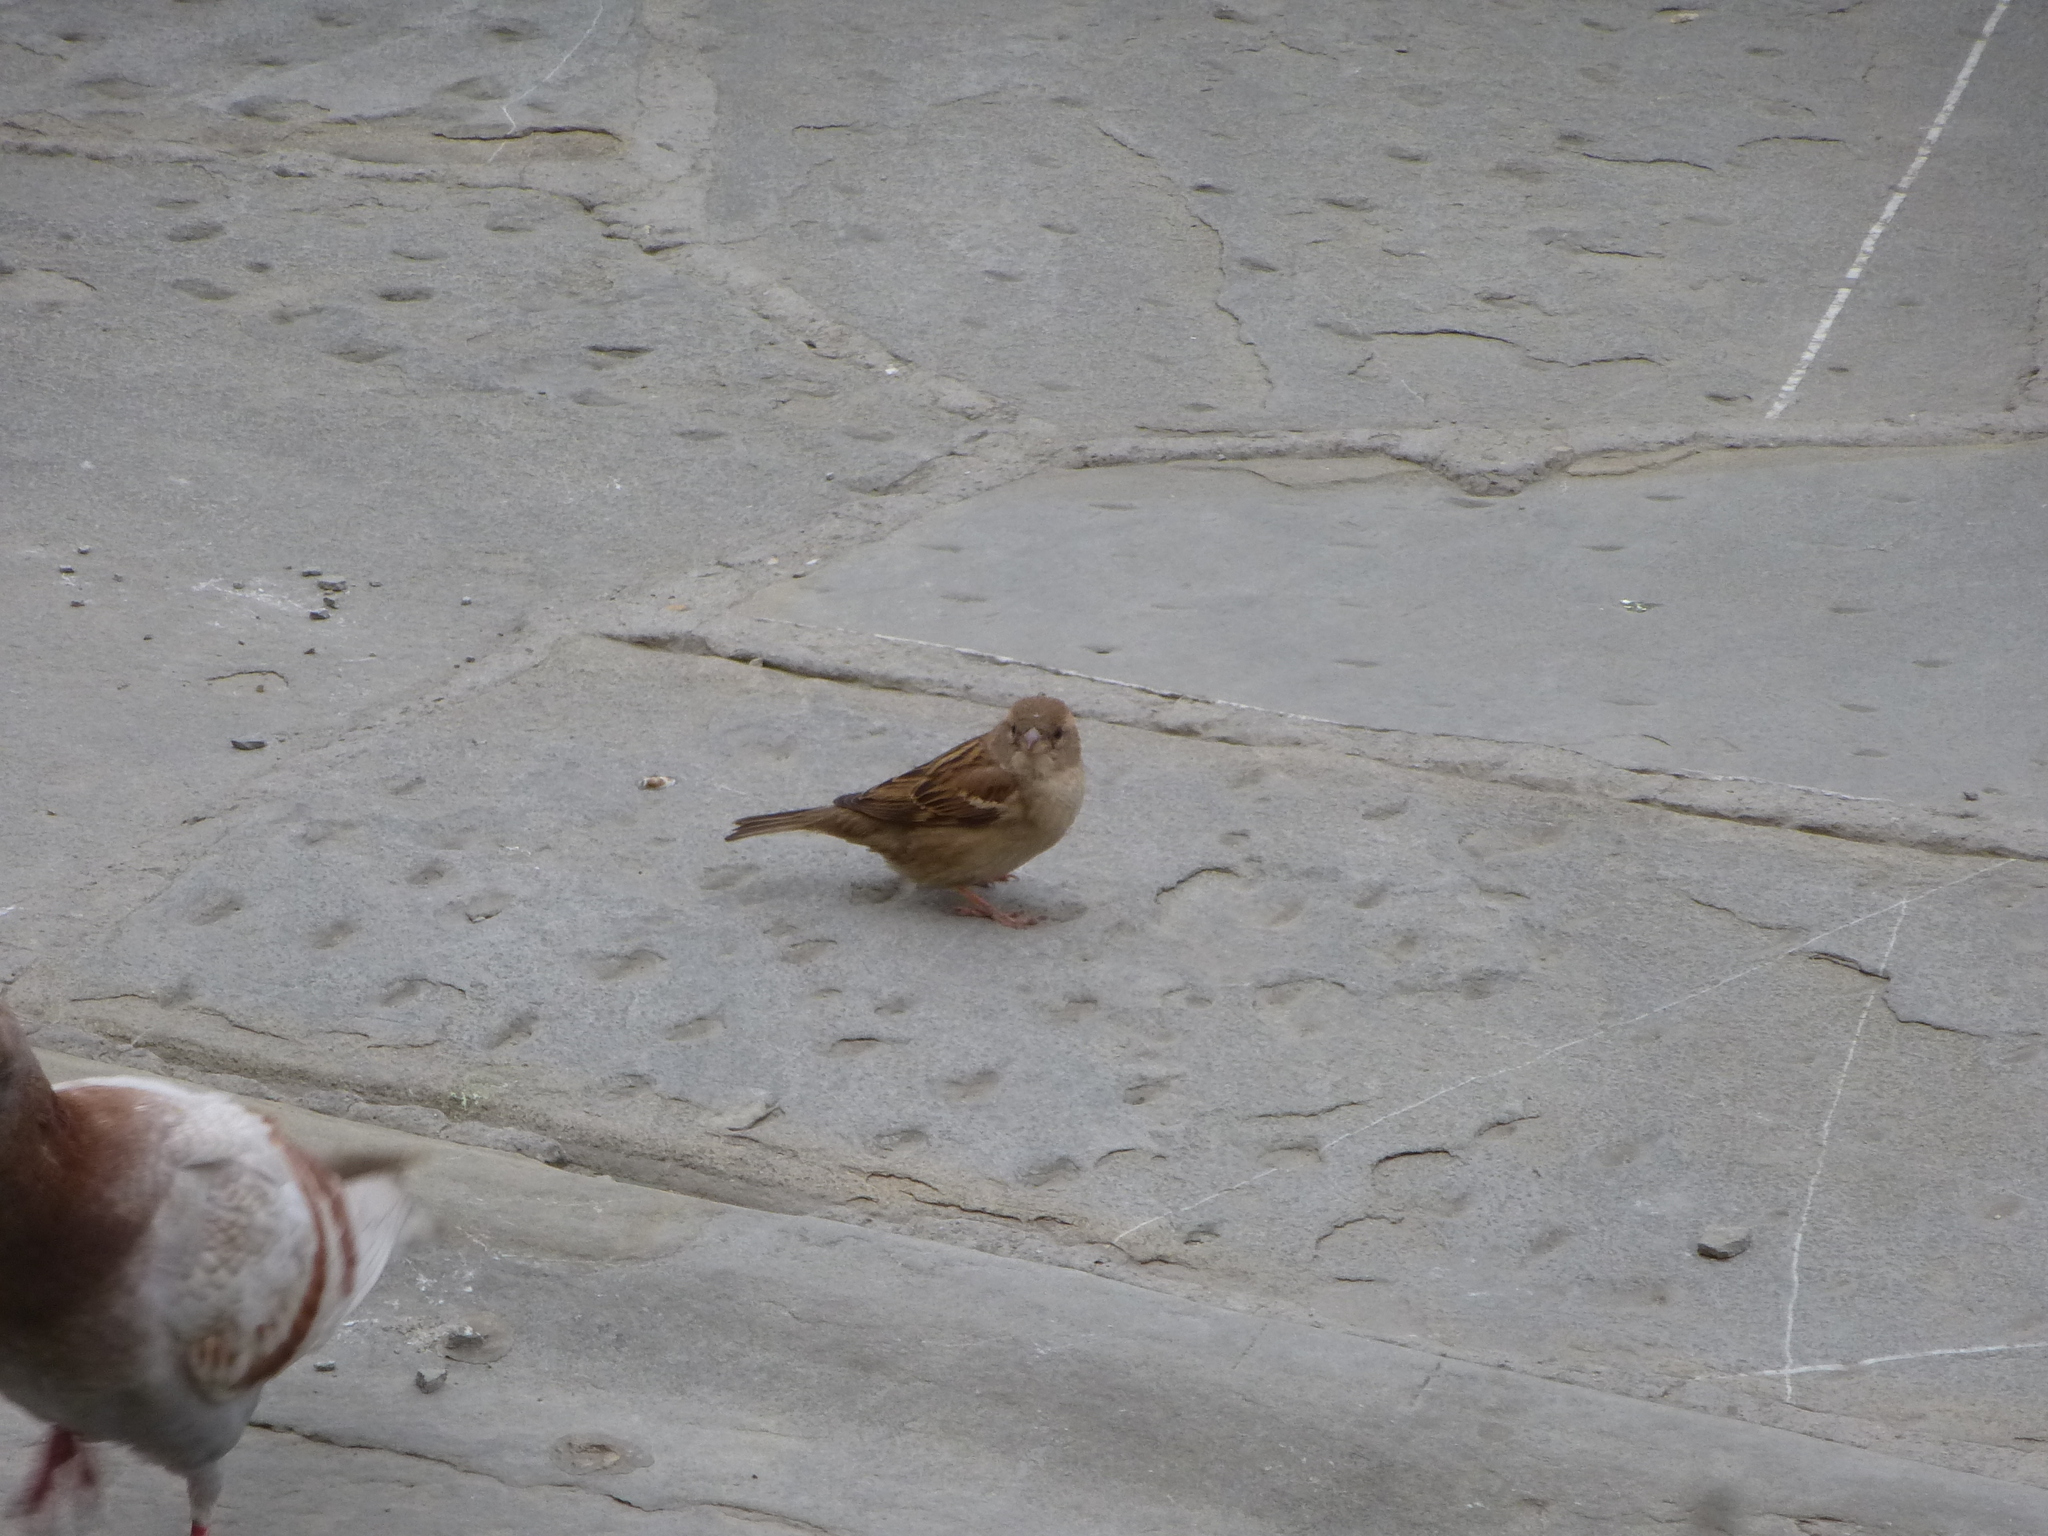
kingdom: Animalia
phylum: Chordata
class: Aves
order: Passeriformes
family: Passeridae
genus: Passer
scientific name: Passer italiae
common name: Italian sparrow
